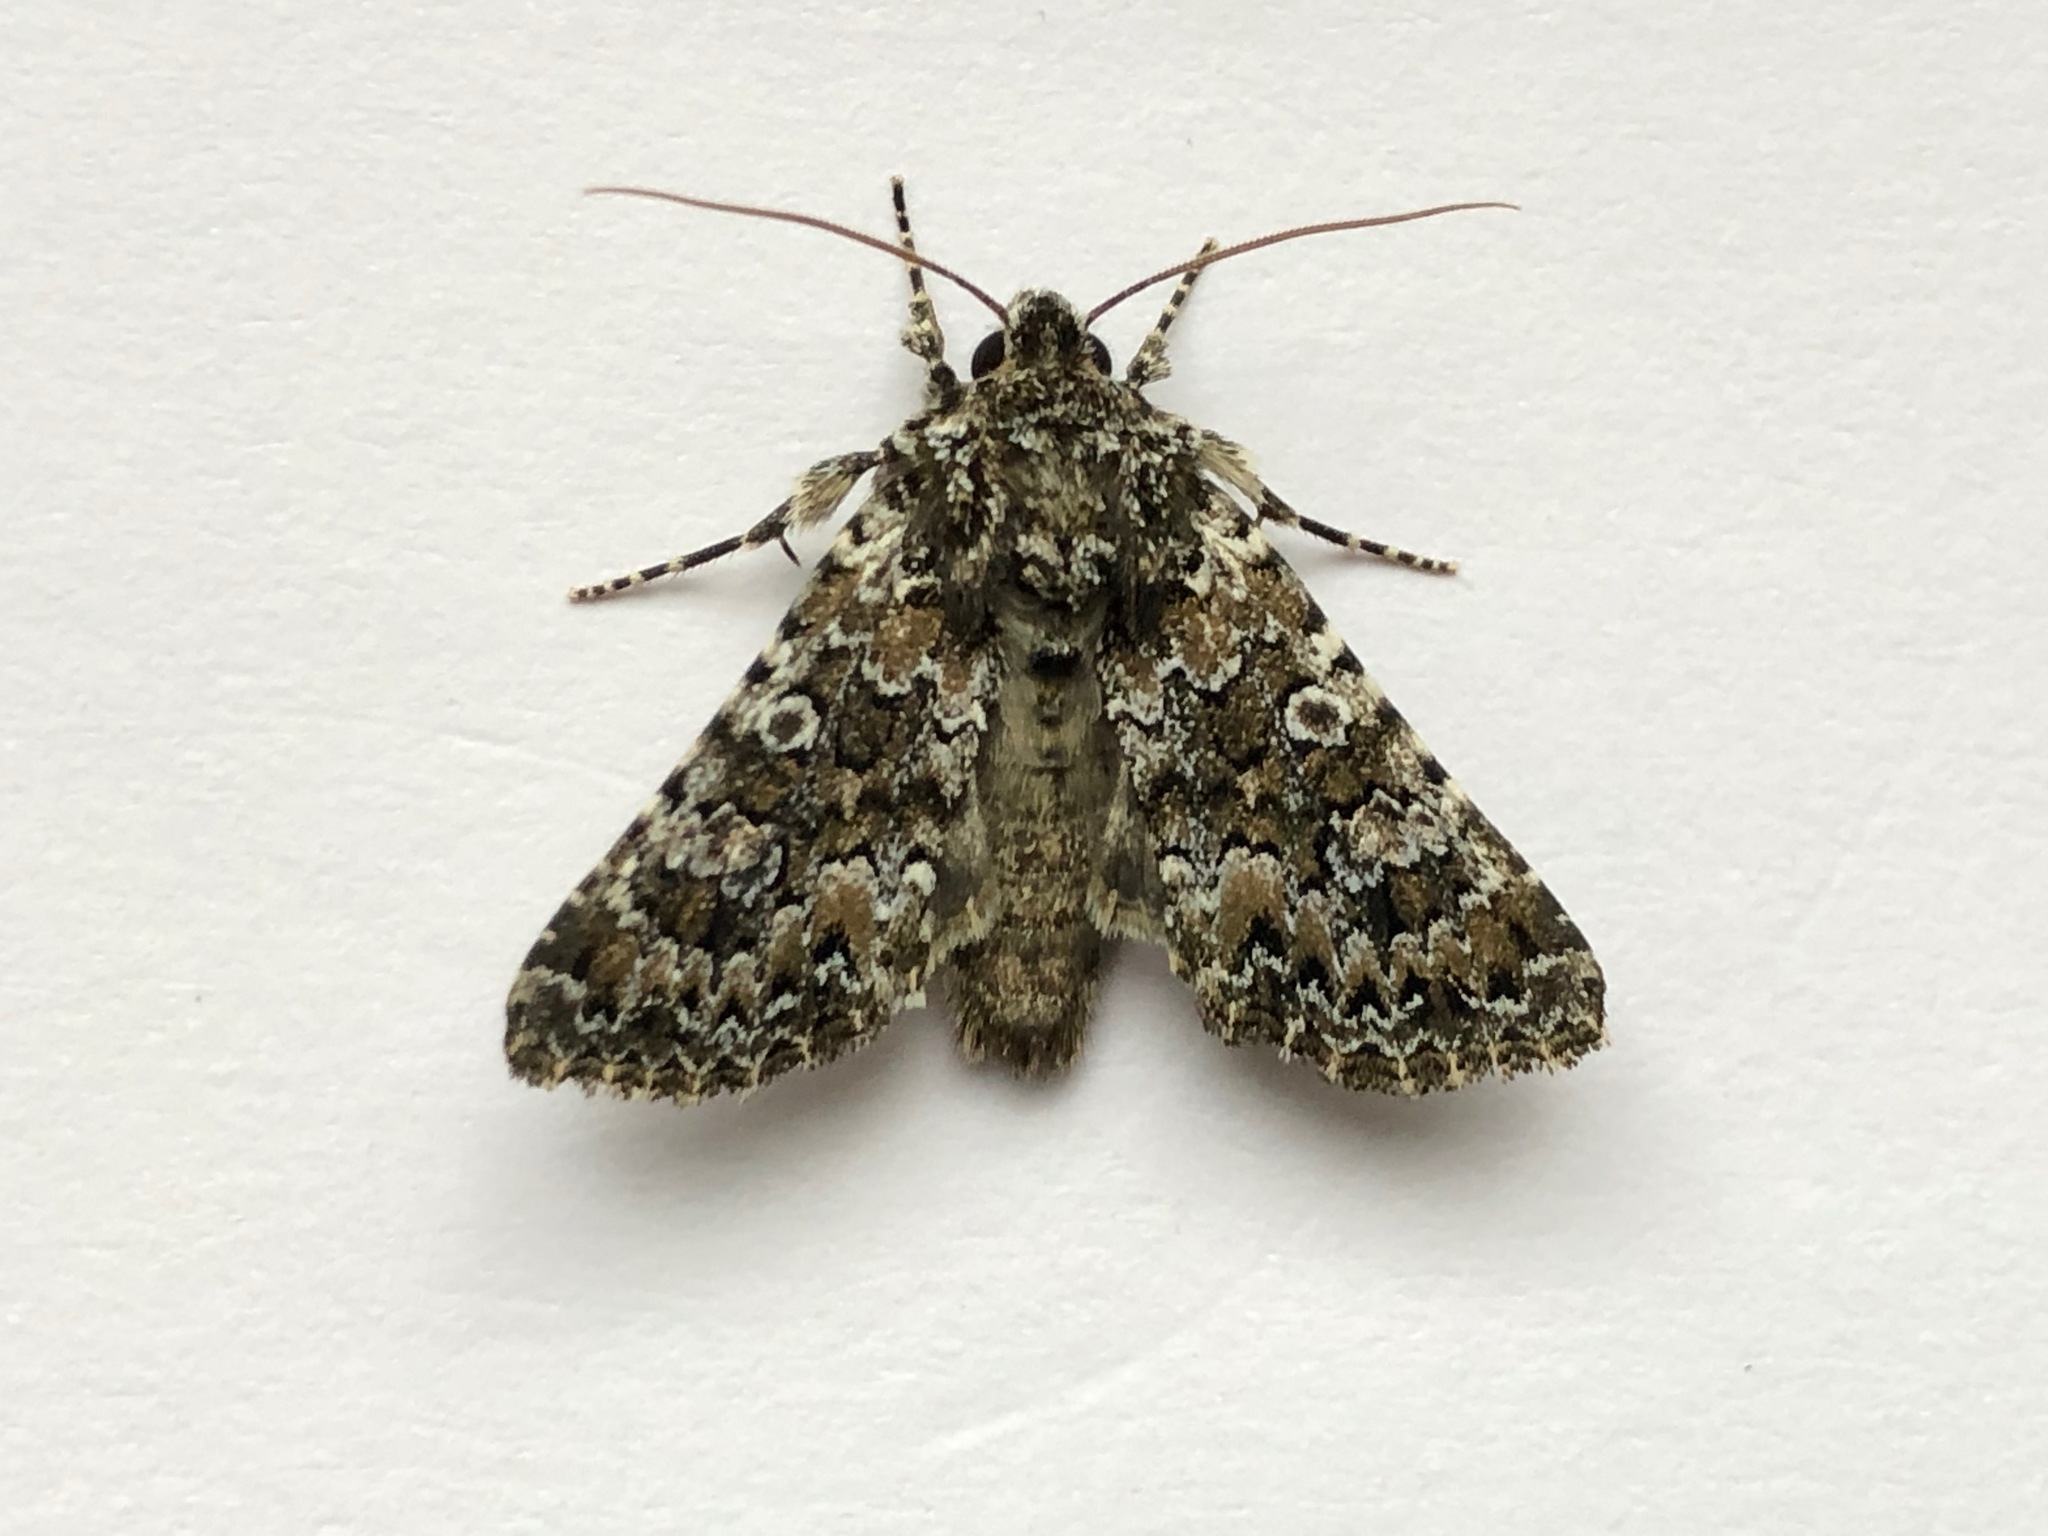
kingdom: Animalia
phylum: Arthropoda
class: Insecta
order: Lepidoptera
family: Noctuidae
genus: Hadena
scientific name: Hadena magnolii
